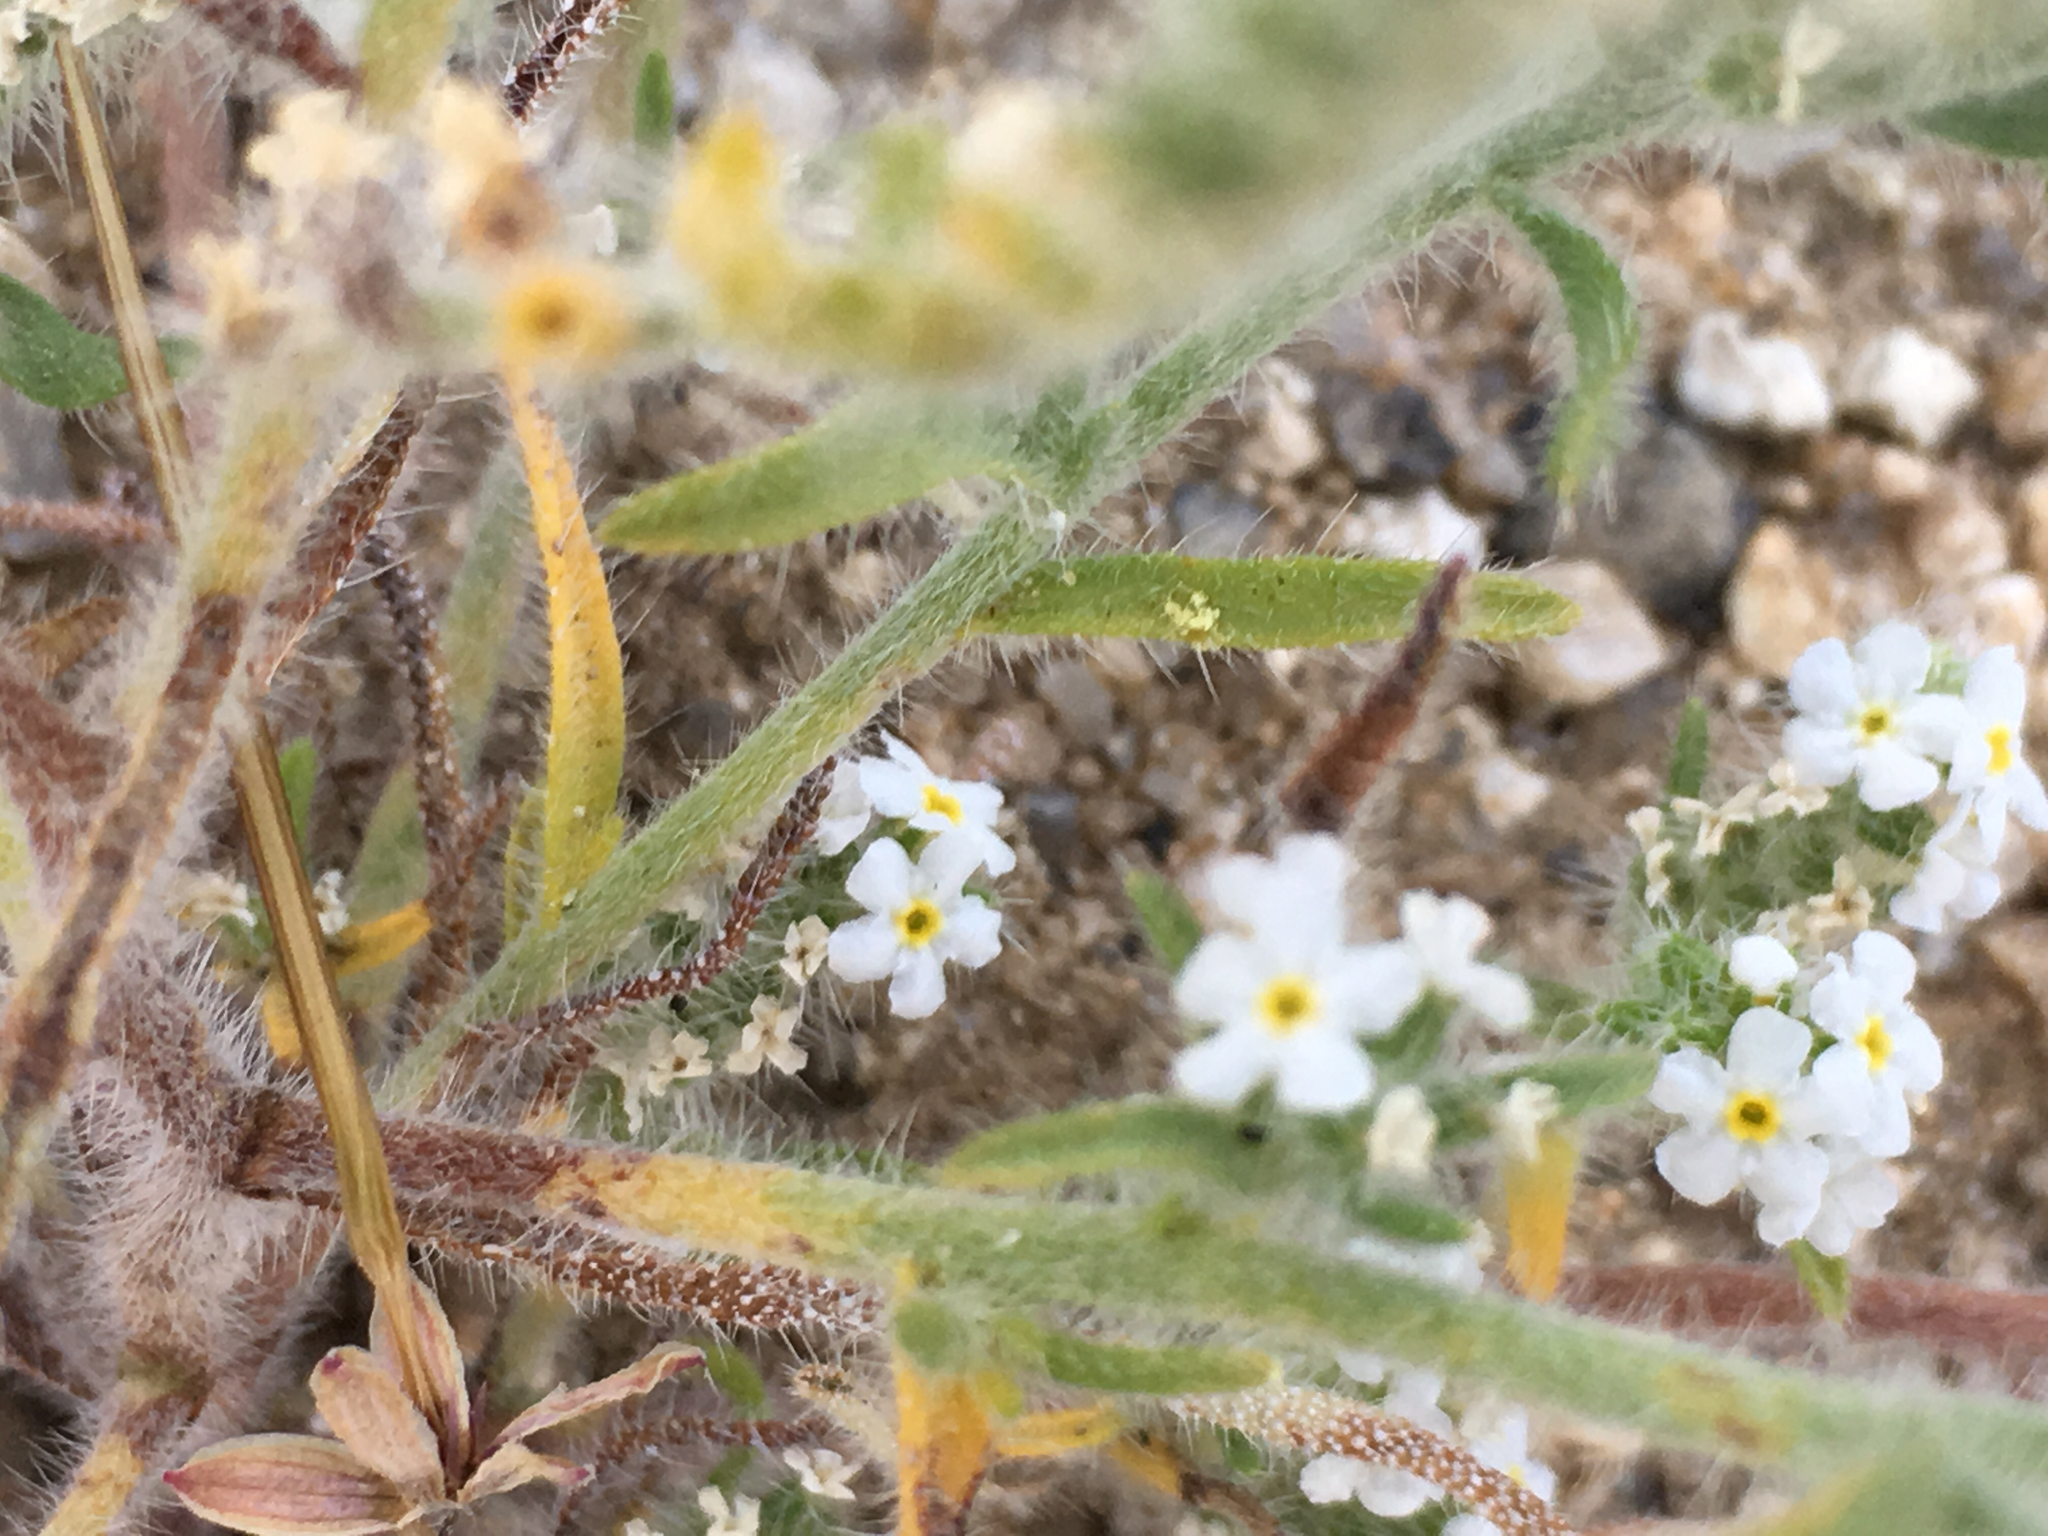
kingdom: Plantae
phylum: Tracheophyta
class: Magnoliopsida
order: Boraginales
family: Boraginaceae
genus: Johnstonella
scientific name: Johnstonella angustifolia
